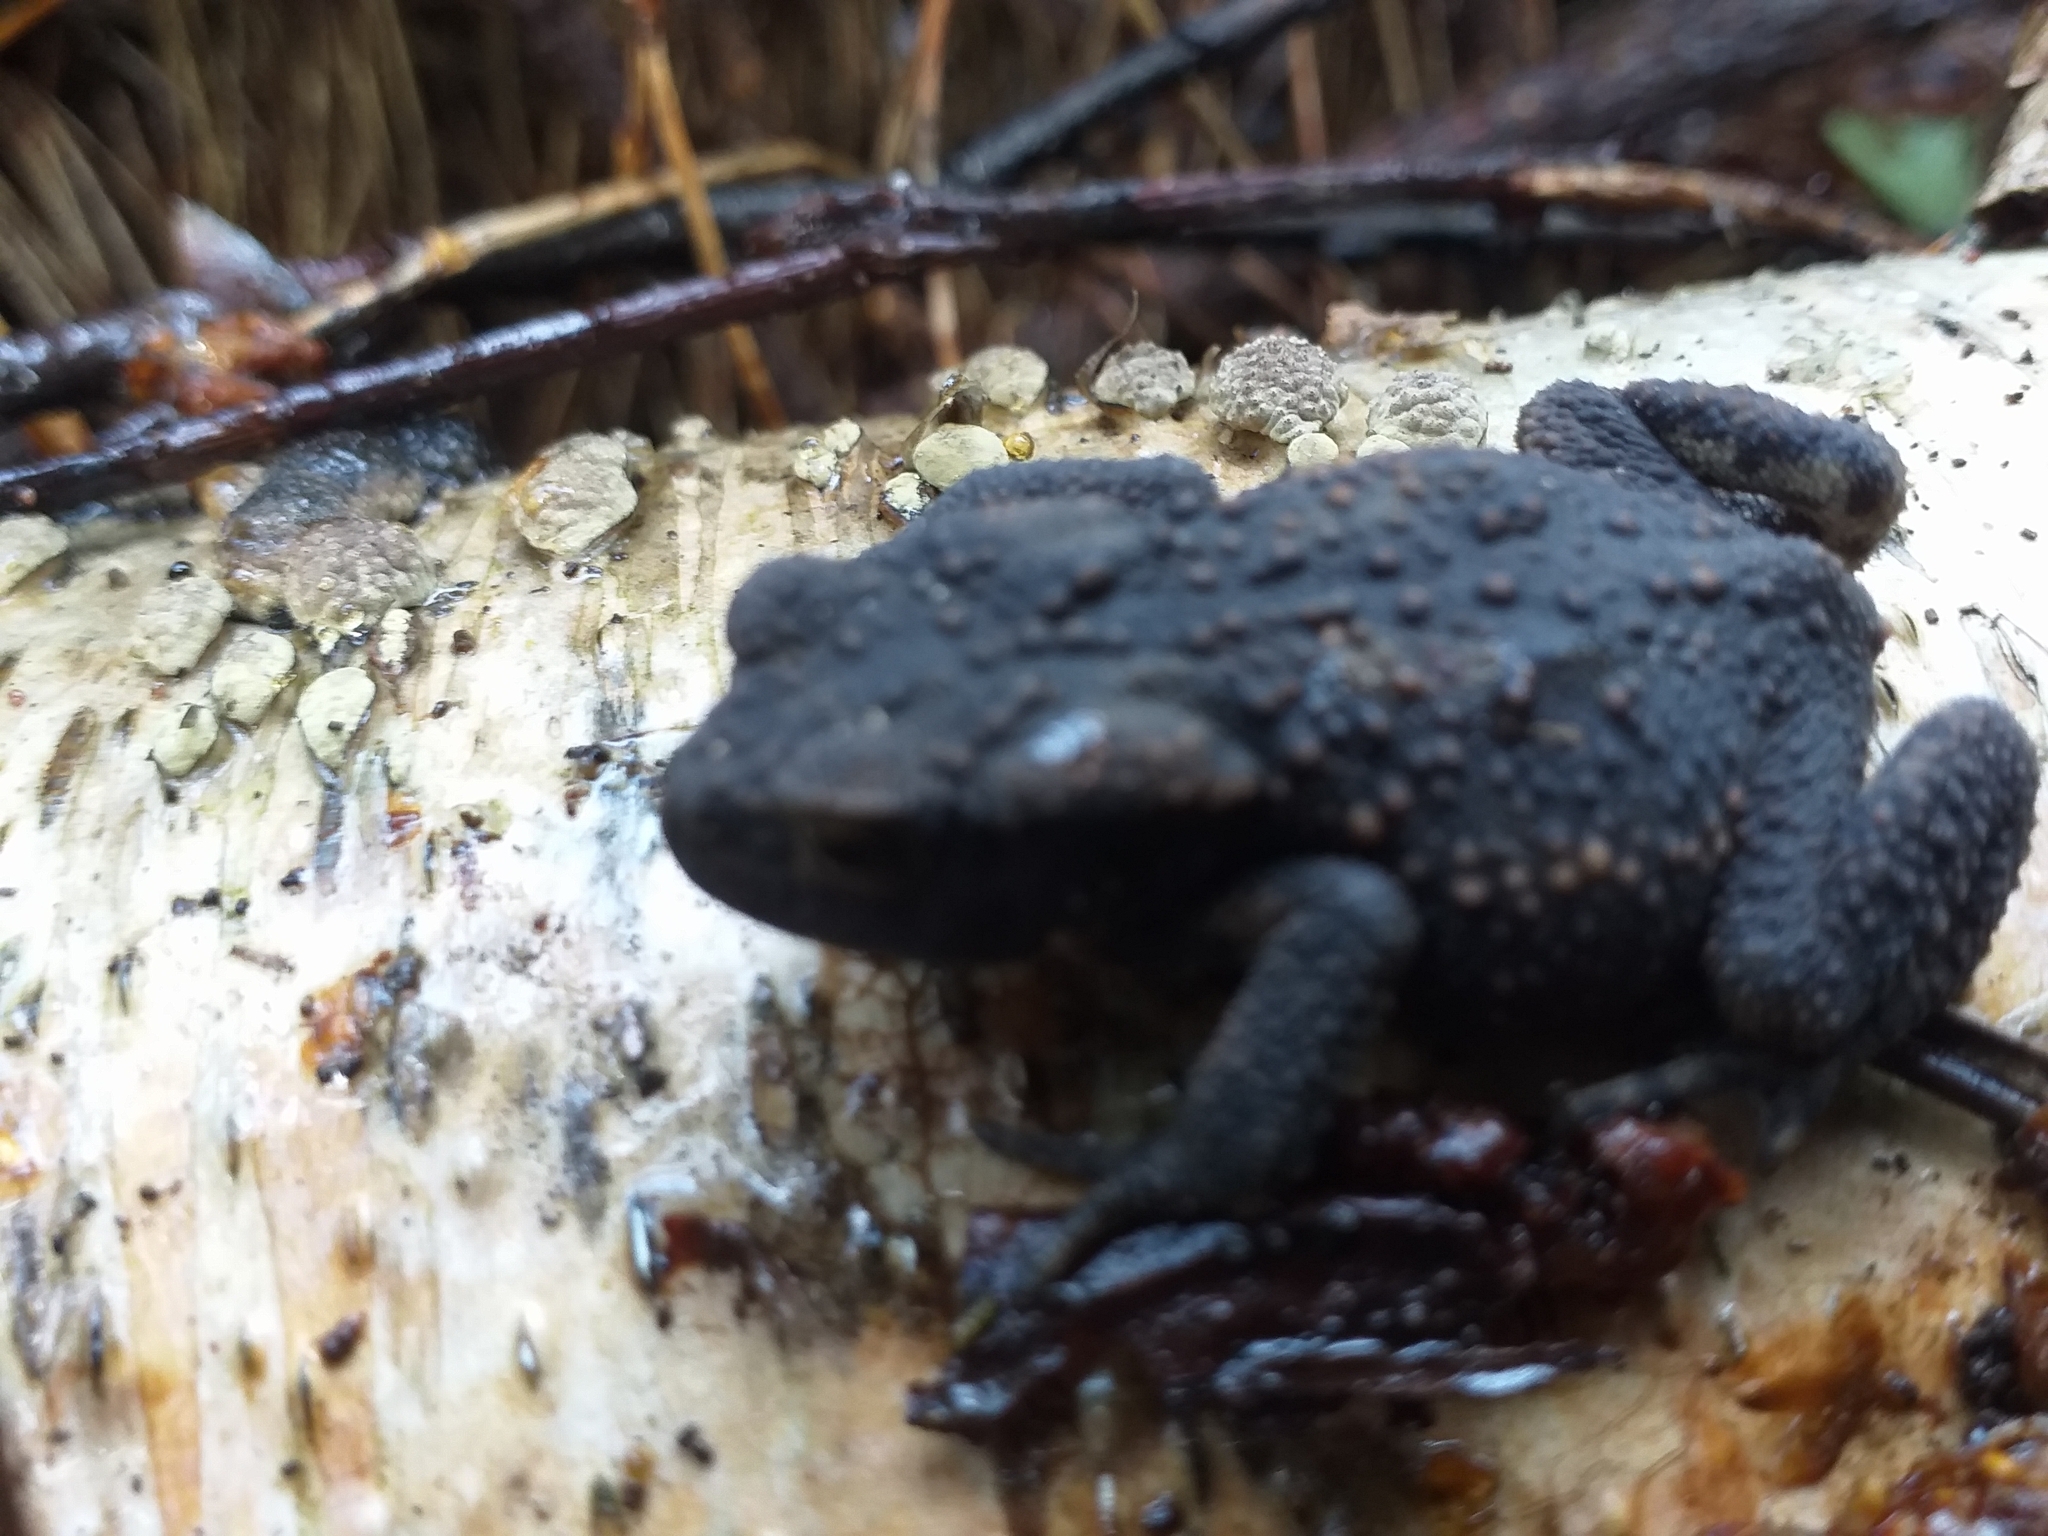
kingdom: Animalia
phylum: Chordata
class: Amphibia
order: Anura
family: Bufonidae
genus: Bufo
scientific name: Bufo bufo
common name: Common toad
